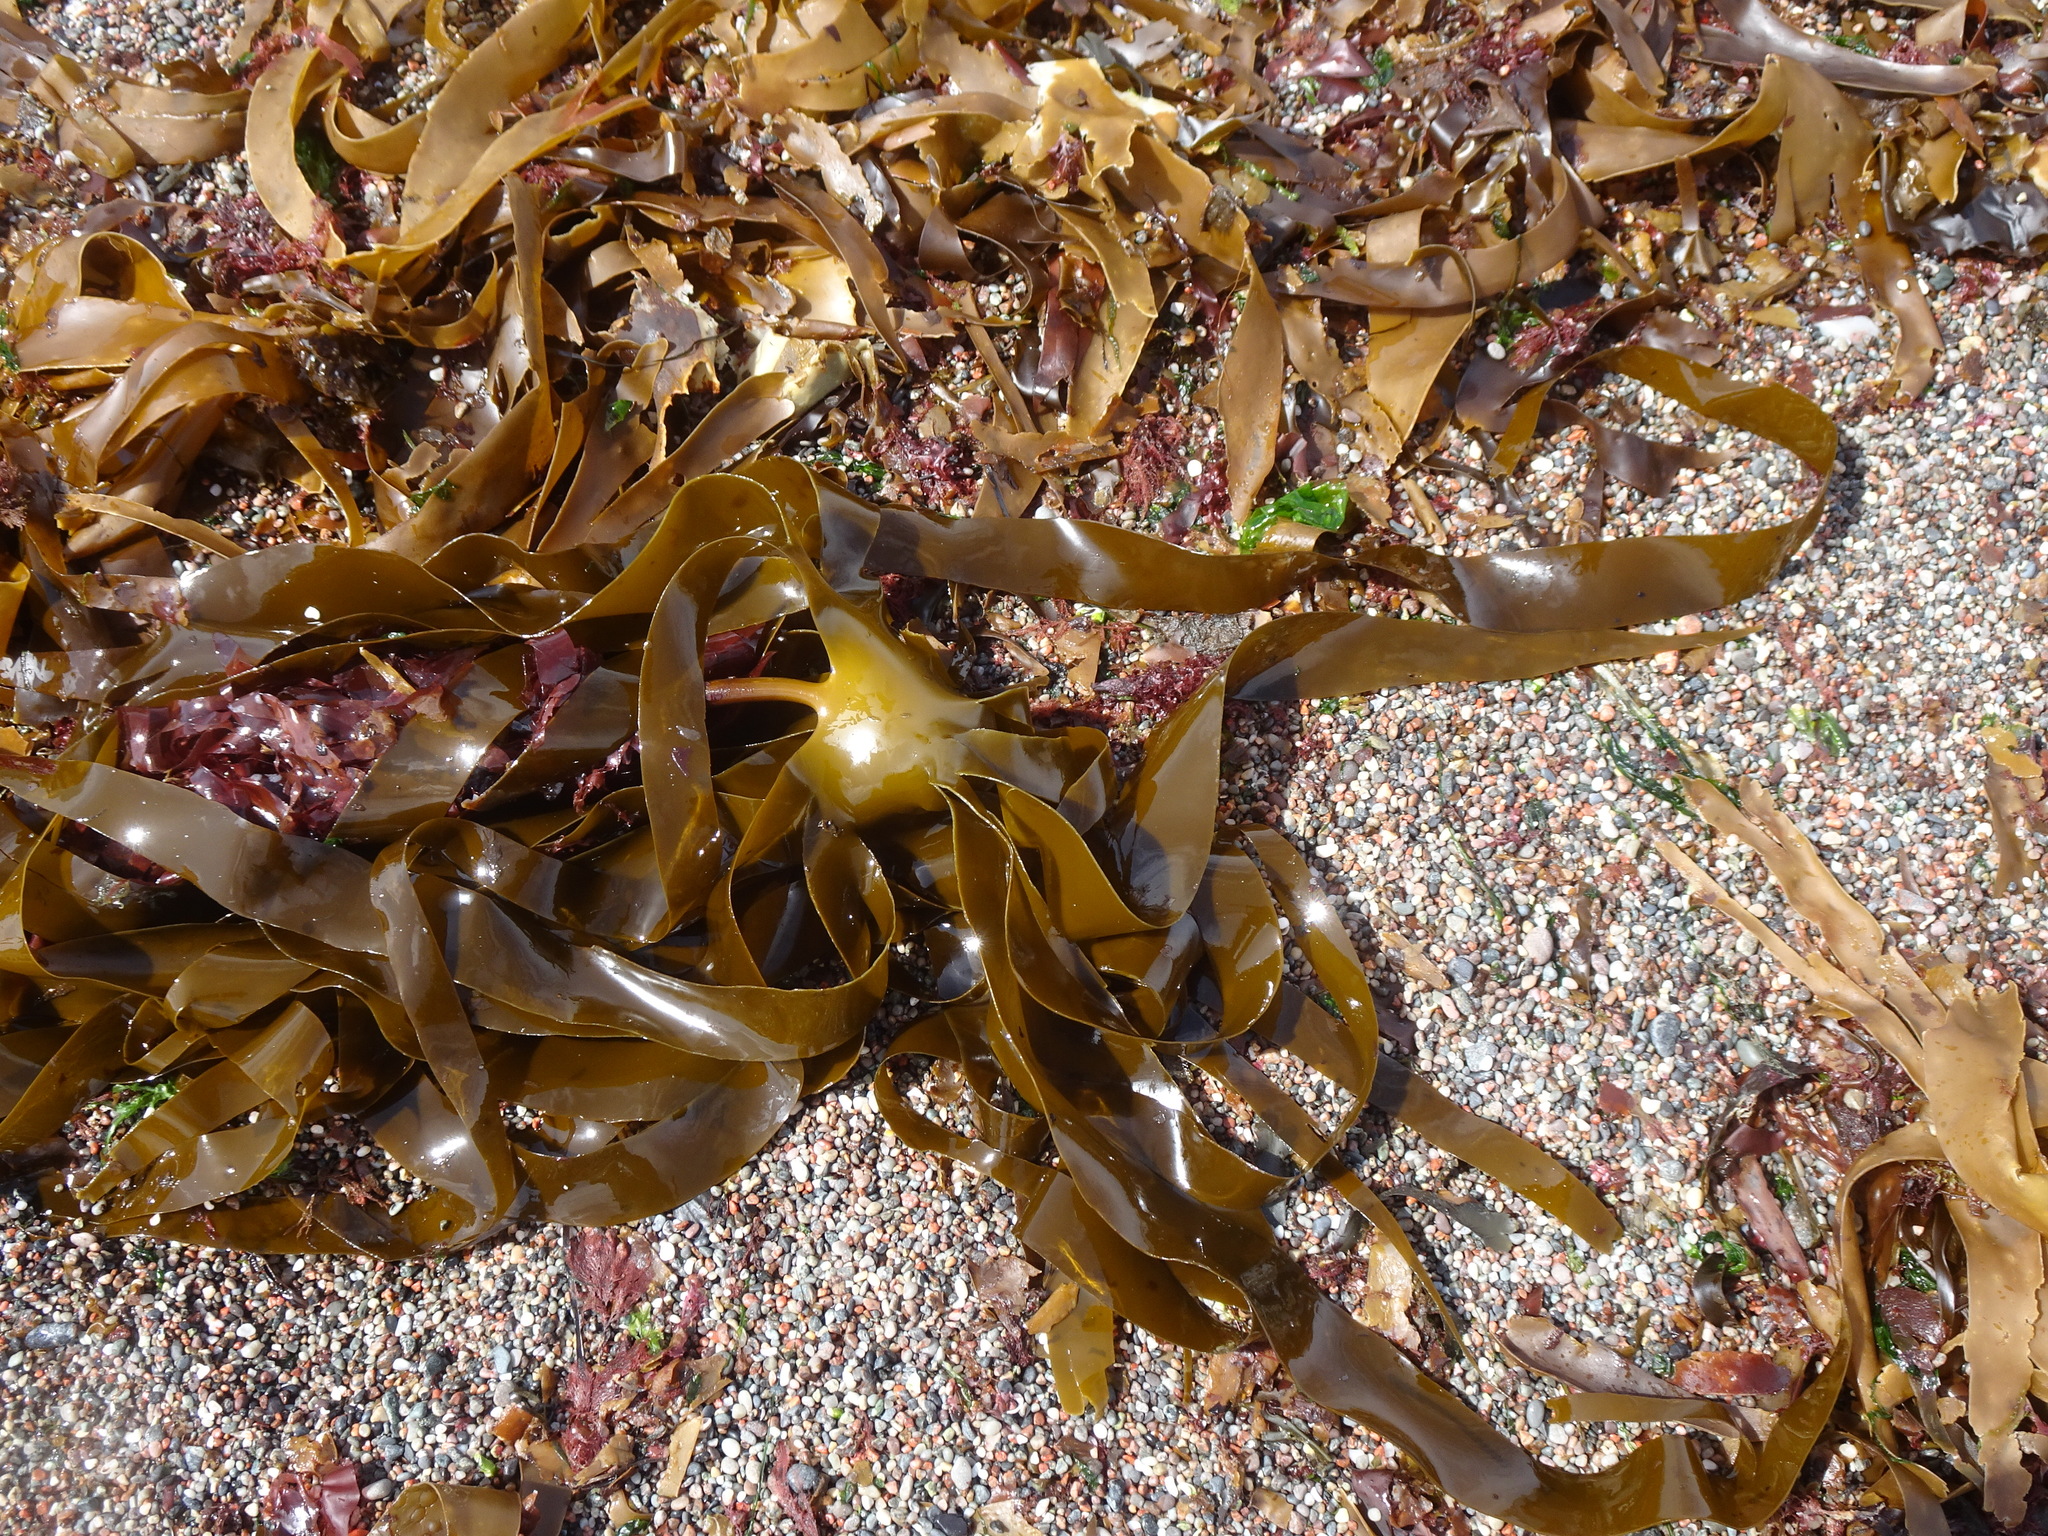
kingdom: Chromista
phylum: Ochrophyta
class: Phaeophyceae
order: Laminariales
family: Laminariaceae
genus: Laminaria
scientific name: Laminaria hyperborea
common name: Cuvie
